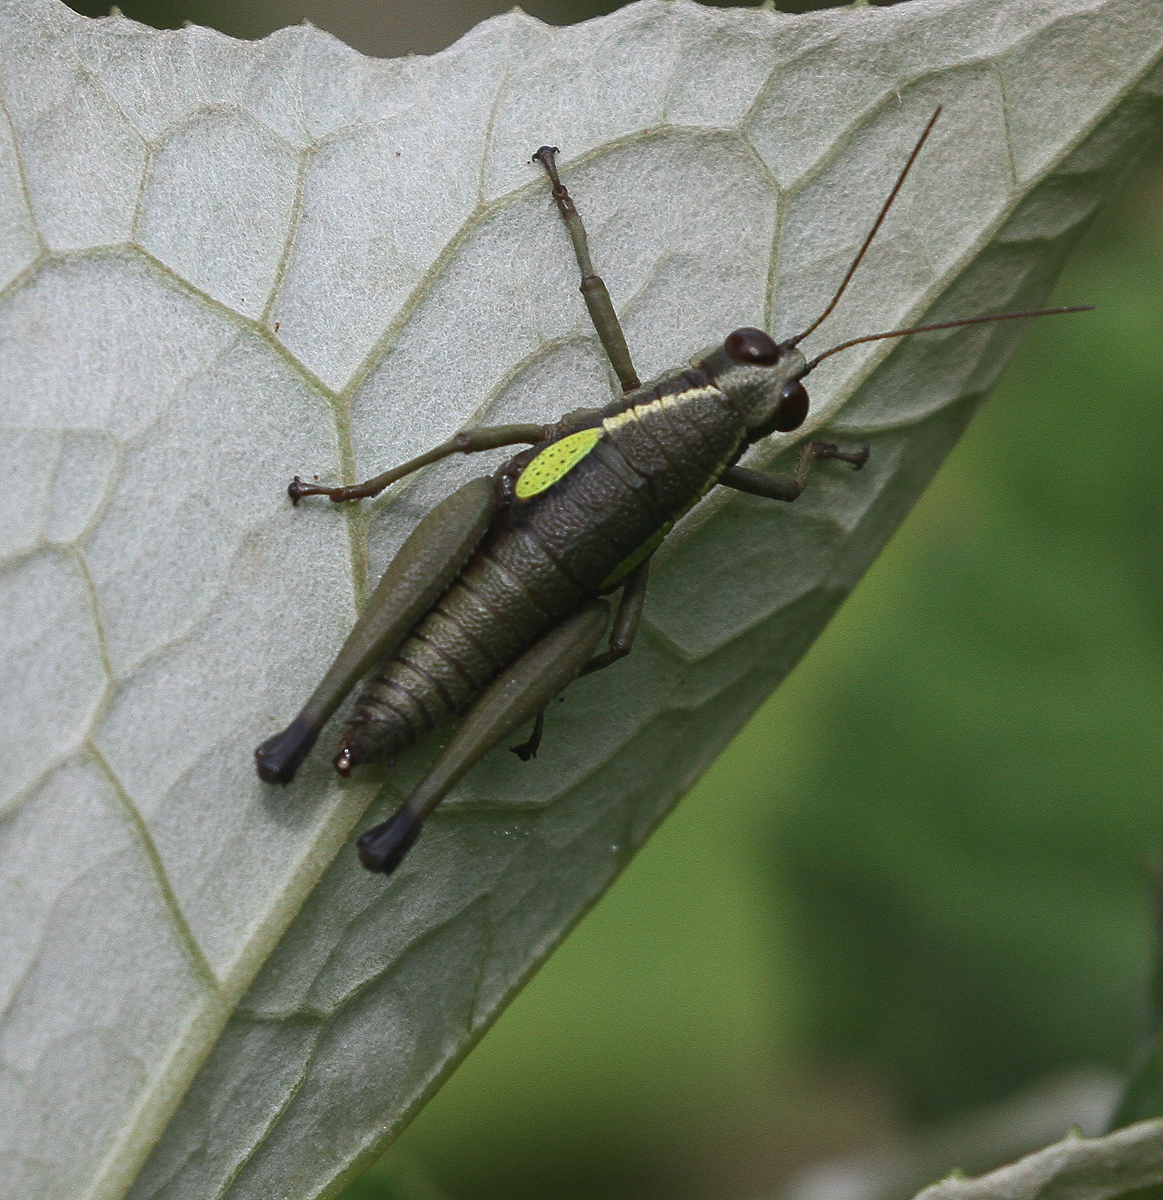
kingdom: Animalia
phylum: Arthropoda
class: Insecta
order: Orthoptera
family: Acrididae
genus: Eulampiacris
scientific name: Eulampiacris leucoptera
